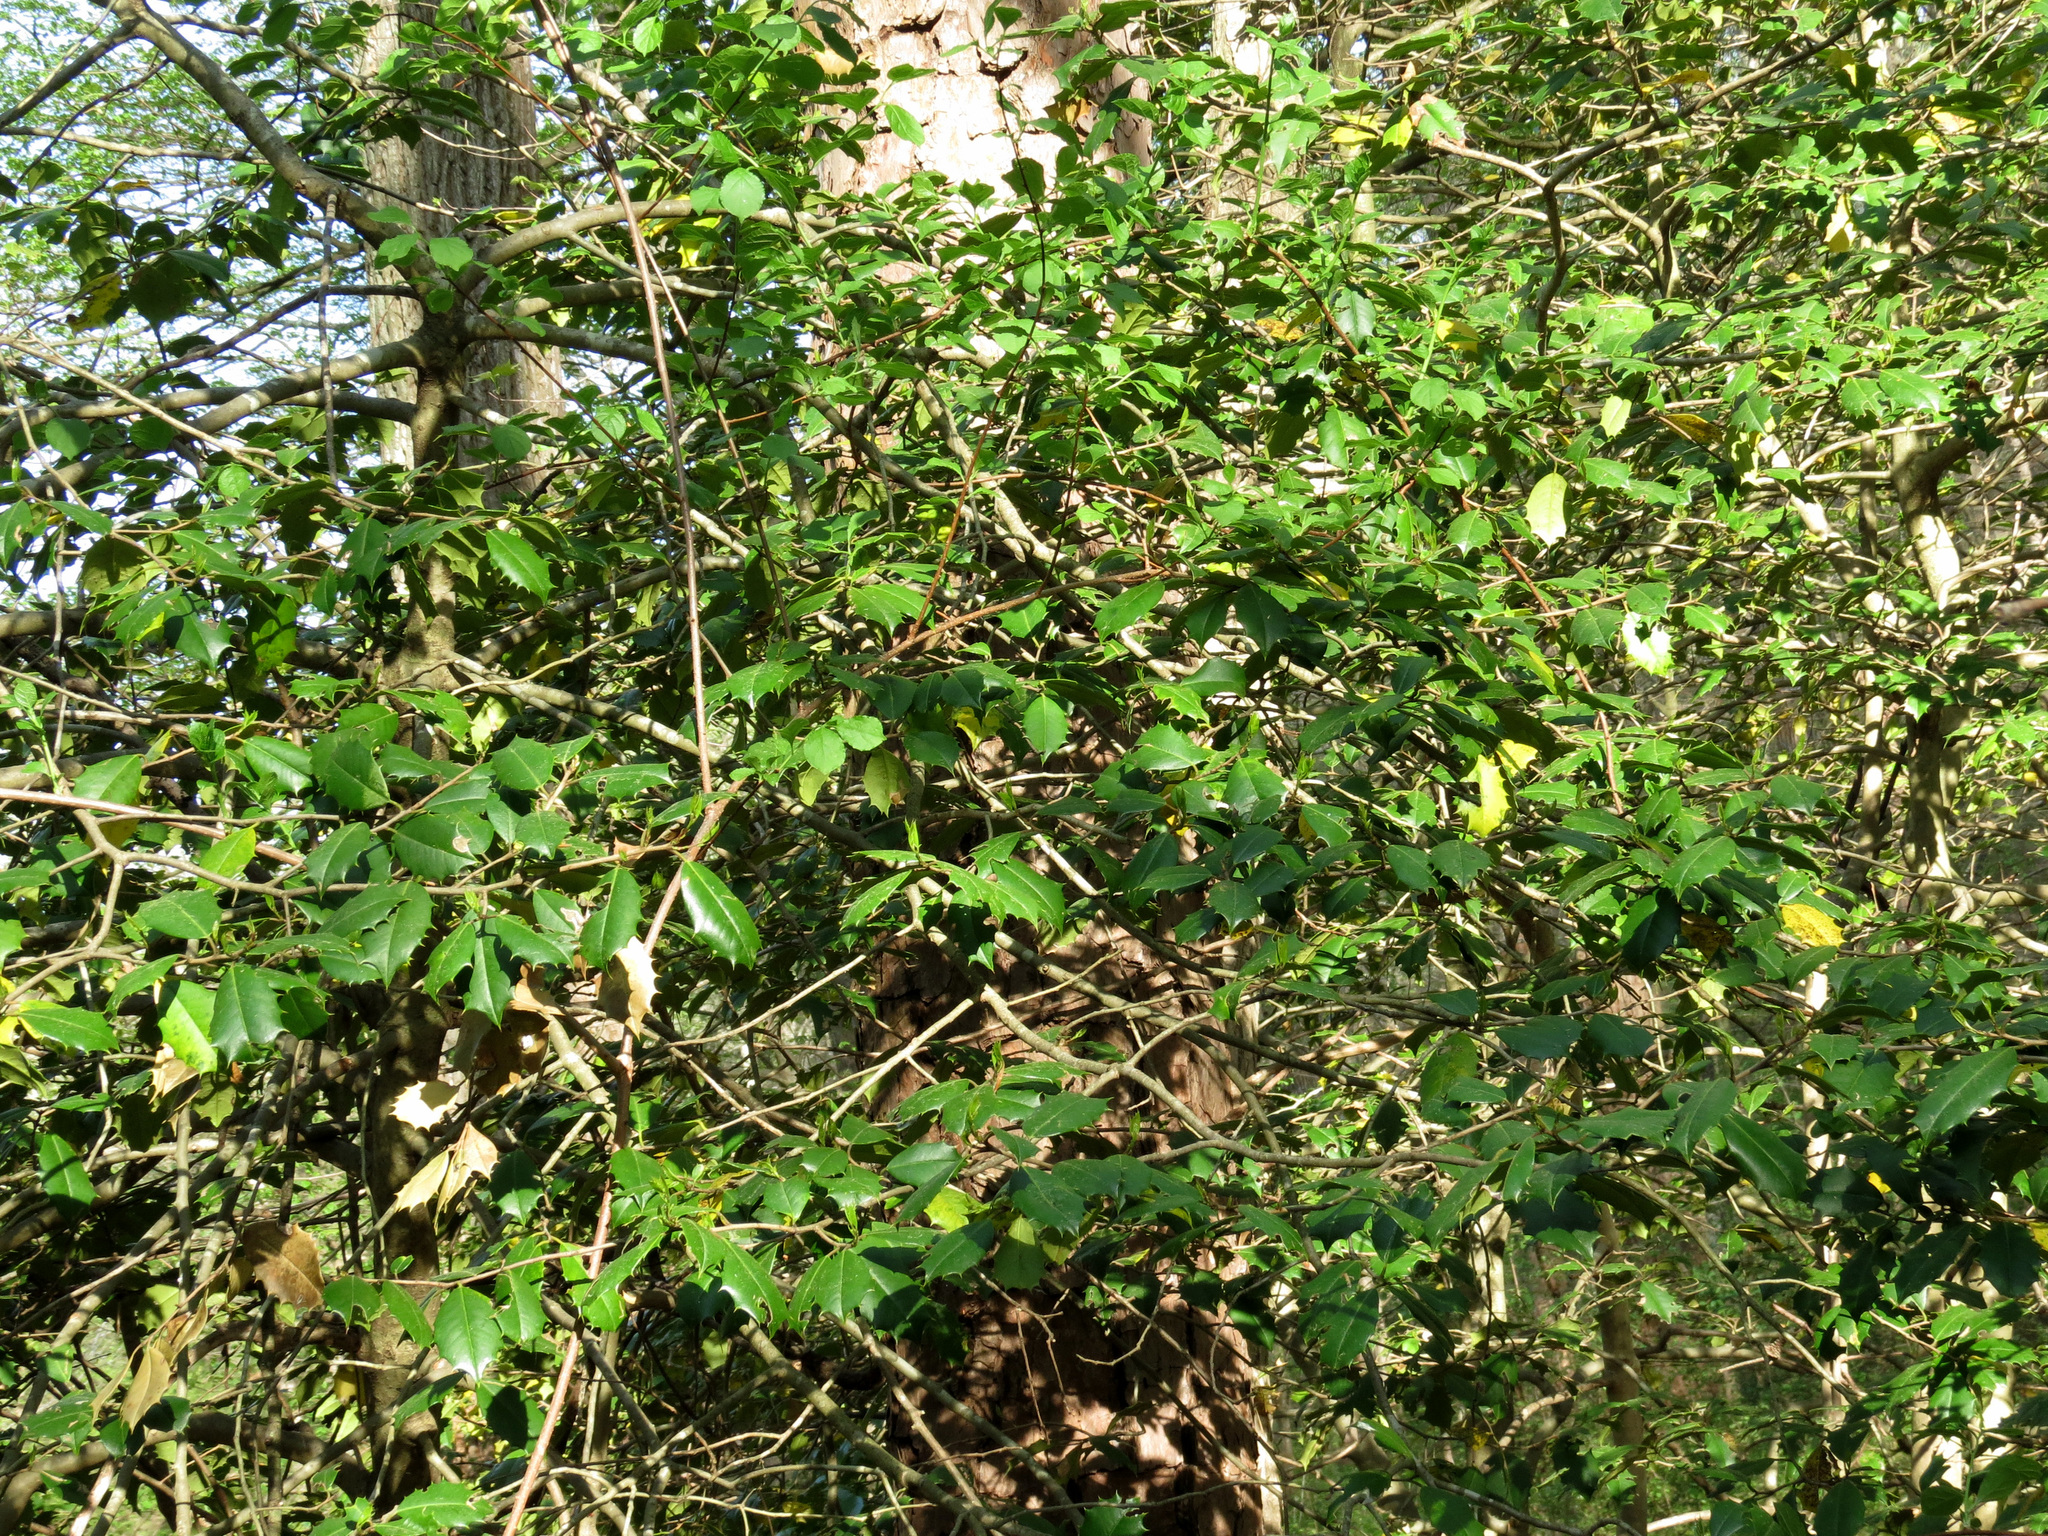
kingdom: Plantae
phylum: Tracheophyta
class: Magnoliopsida
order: Aquifoliales
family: Aquifoliaceae
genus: Ilex
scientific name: Ilex opaca
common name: American holly
